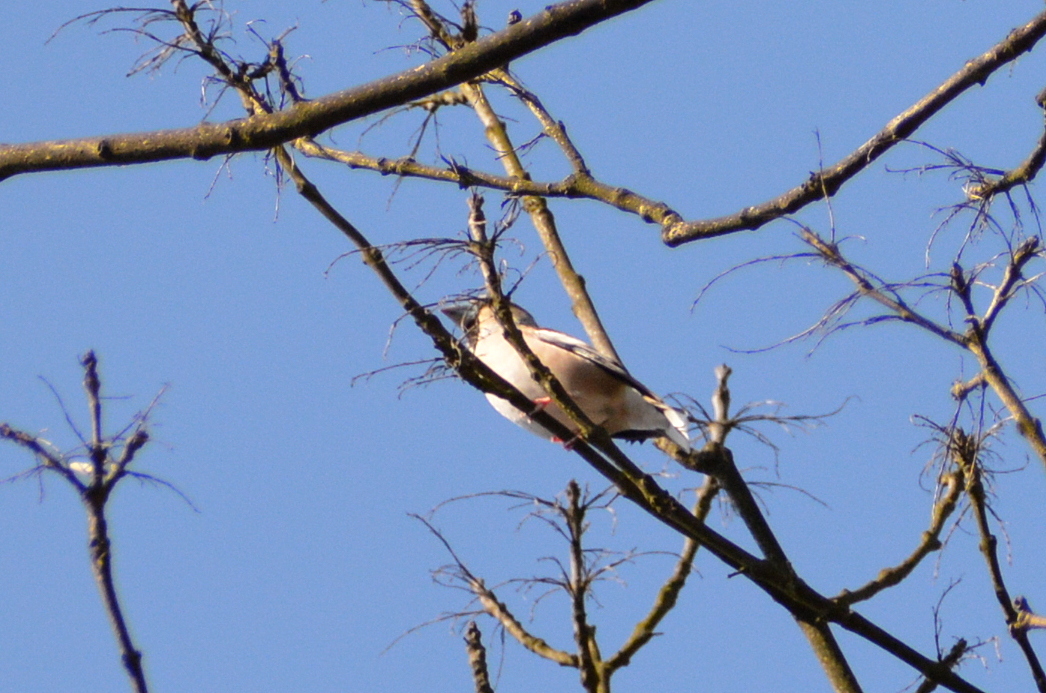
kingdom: Animalia
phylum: Chordata
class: Aves
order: Passeriformes
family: Fringillidae
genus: Coccothraustes
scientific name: Coccothraustes coccothraustes
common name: Hawfinch
